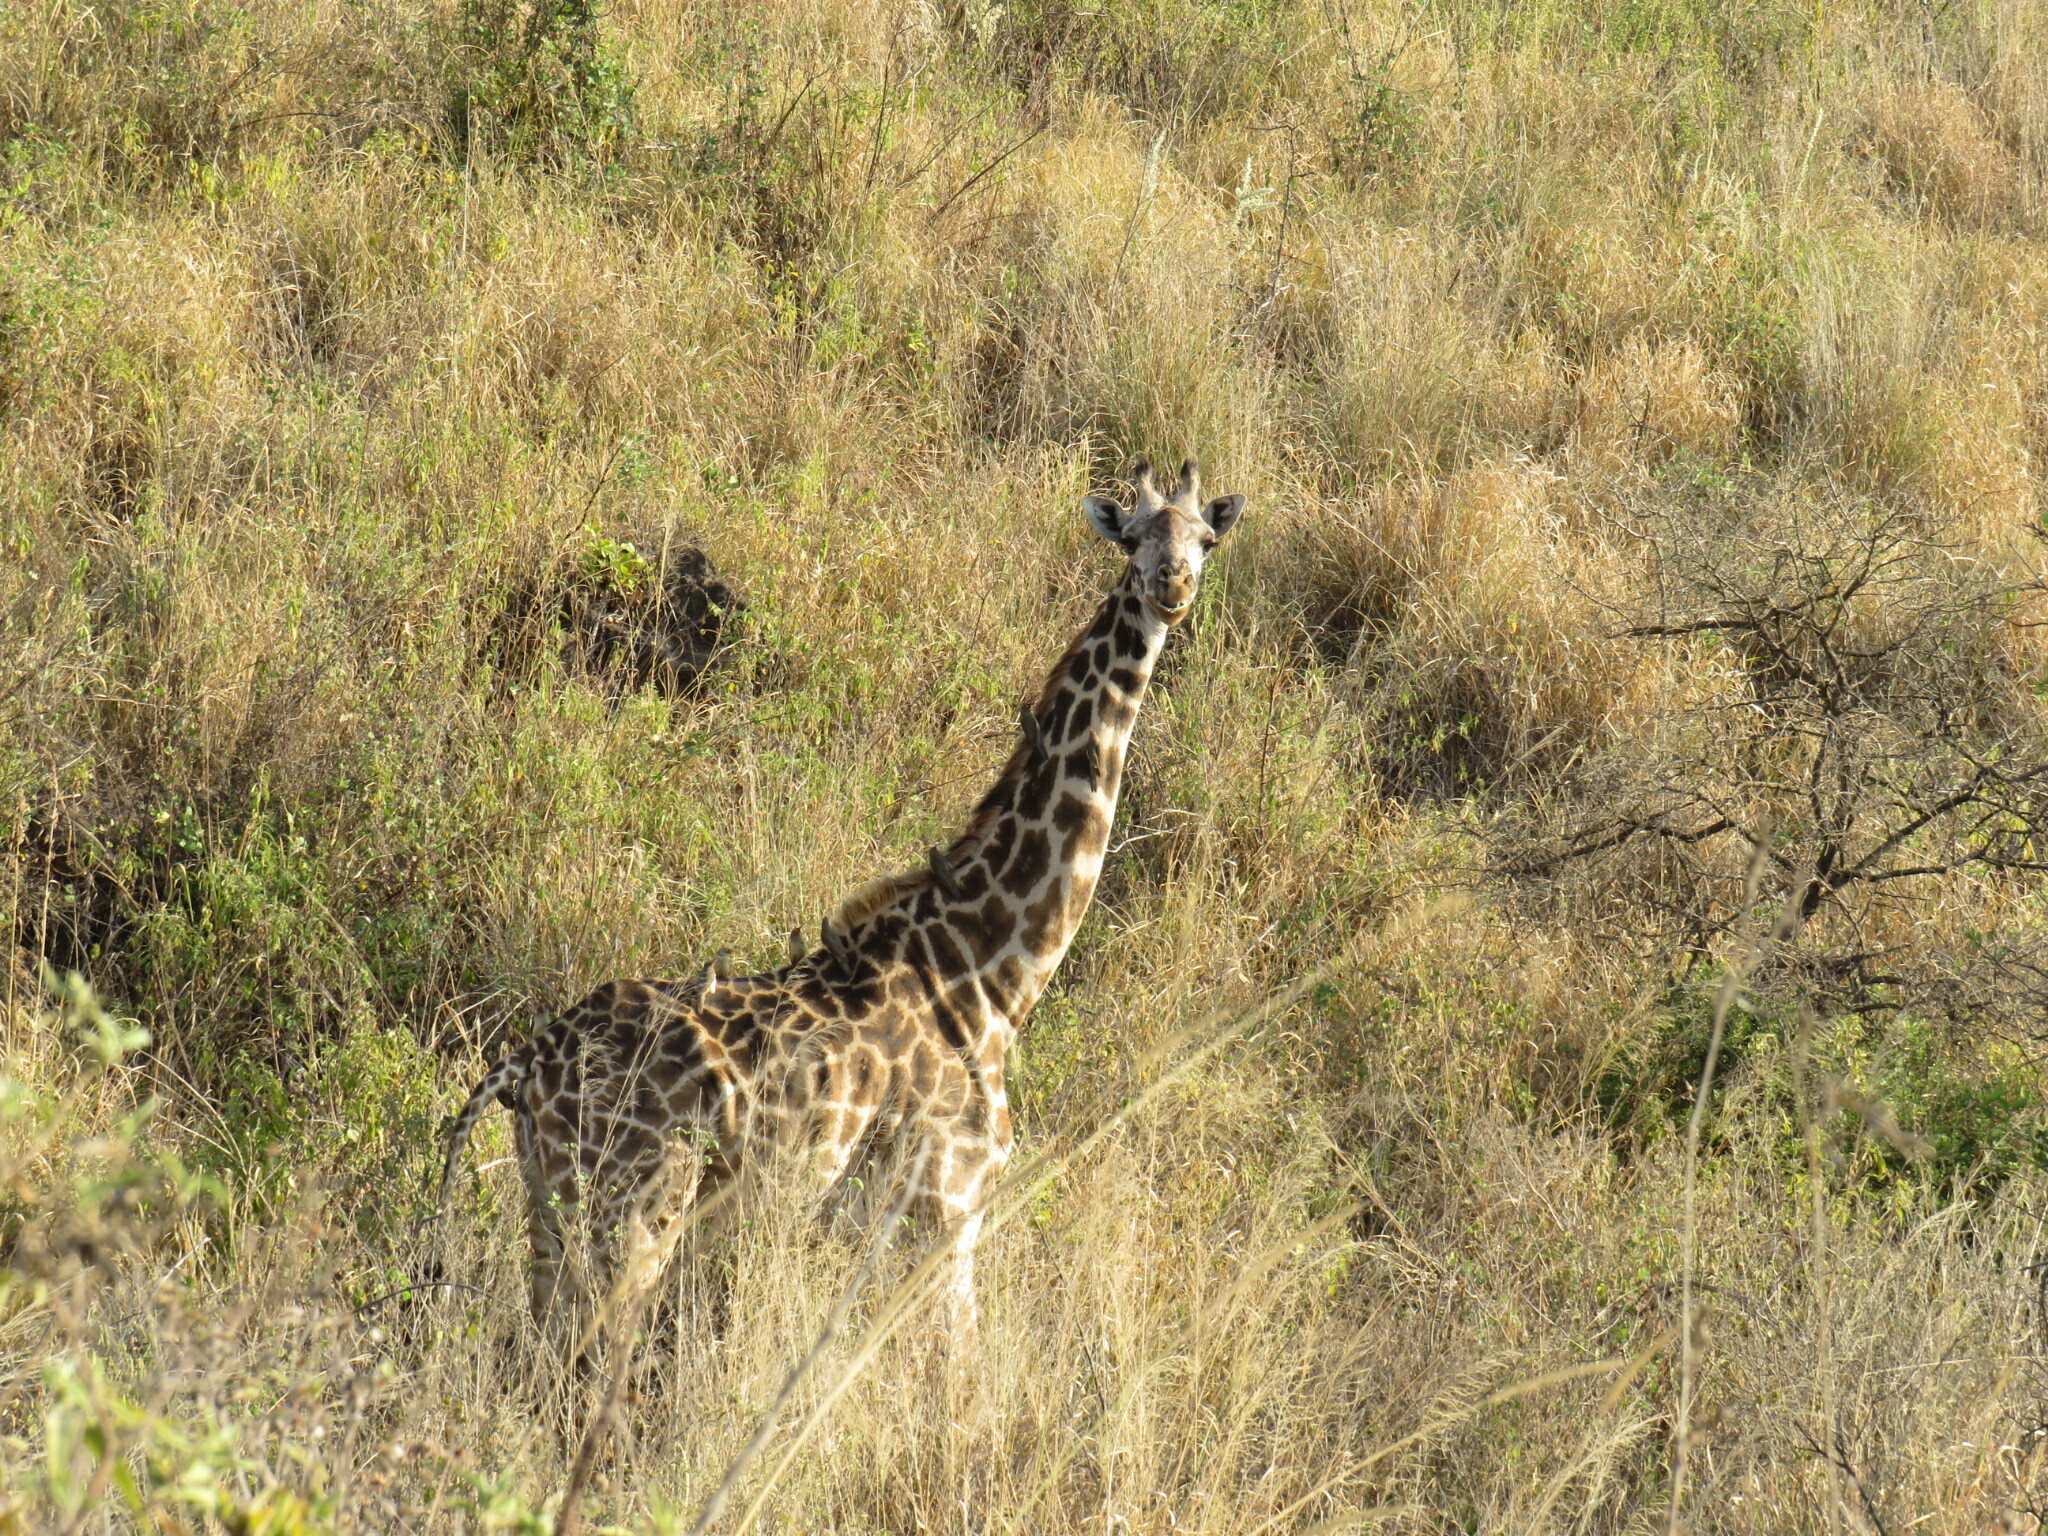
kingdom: Animalia
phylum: Chordata
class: Mammalia
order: Artiodactyla
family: Giraffidae
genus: Giraffa
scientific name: Giraffa tippelskirchi
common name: Masai giraffe
